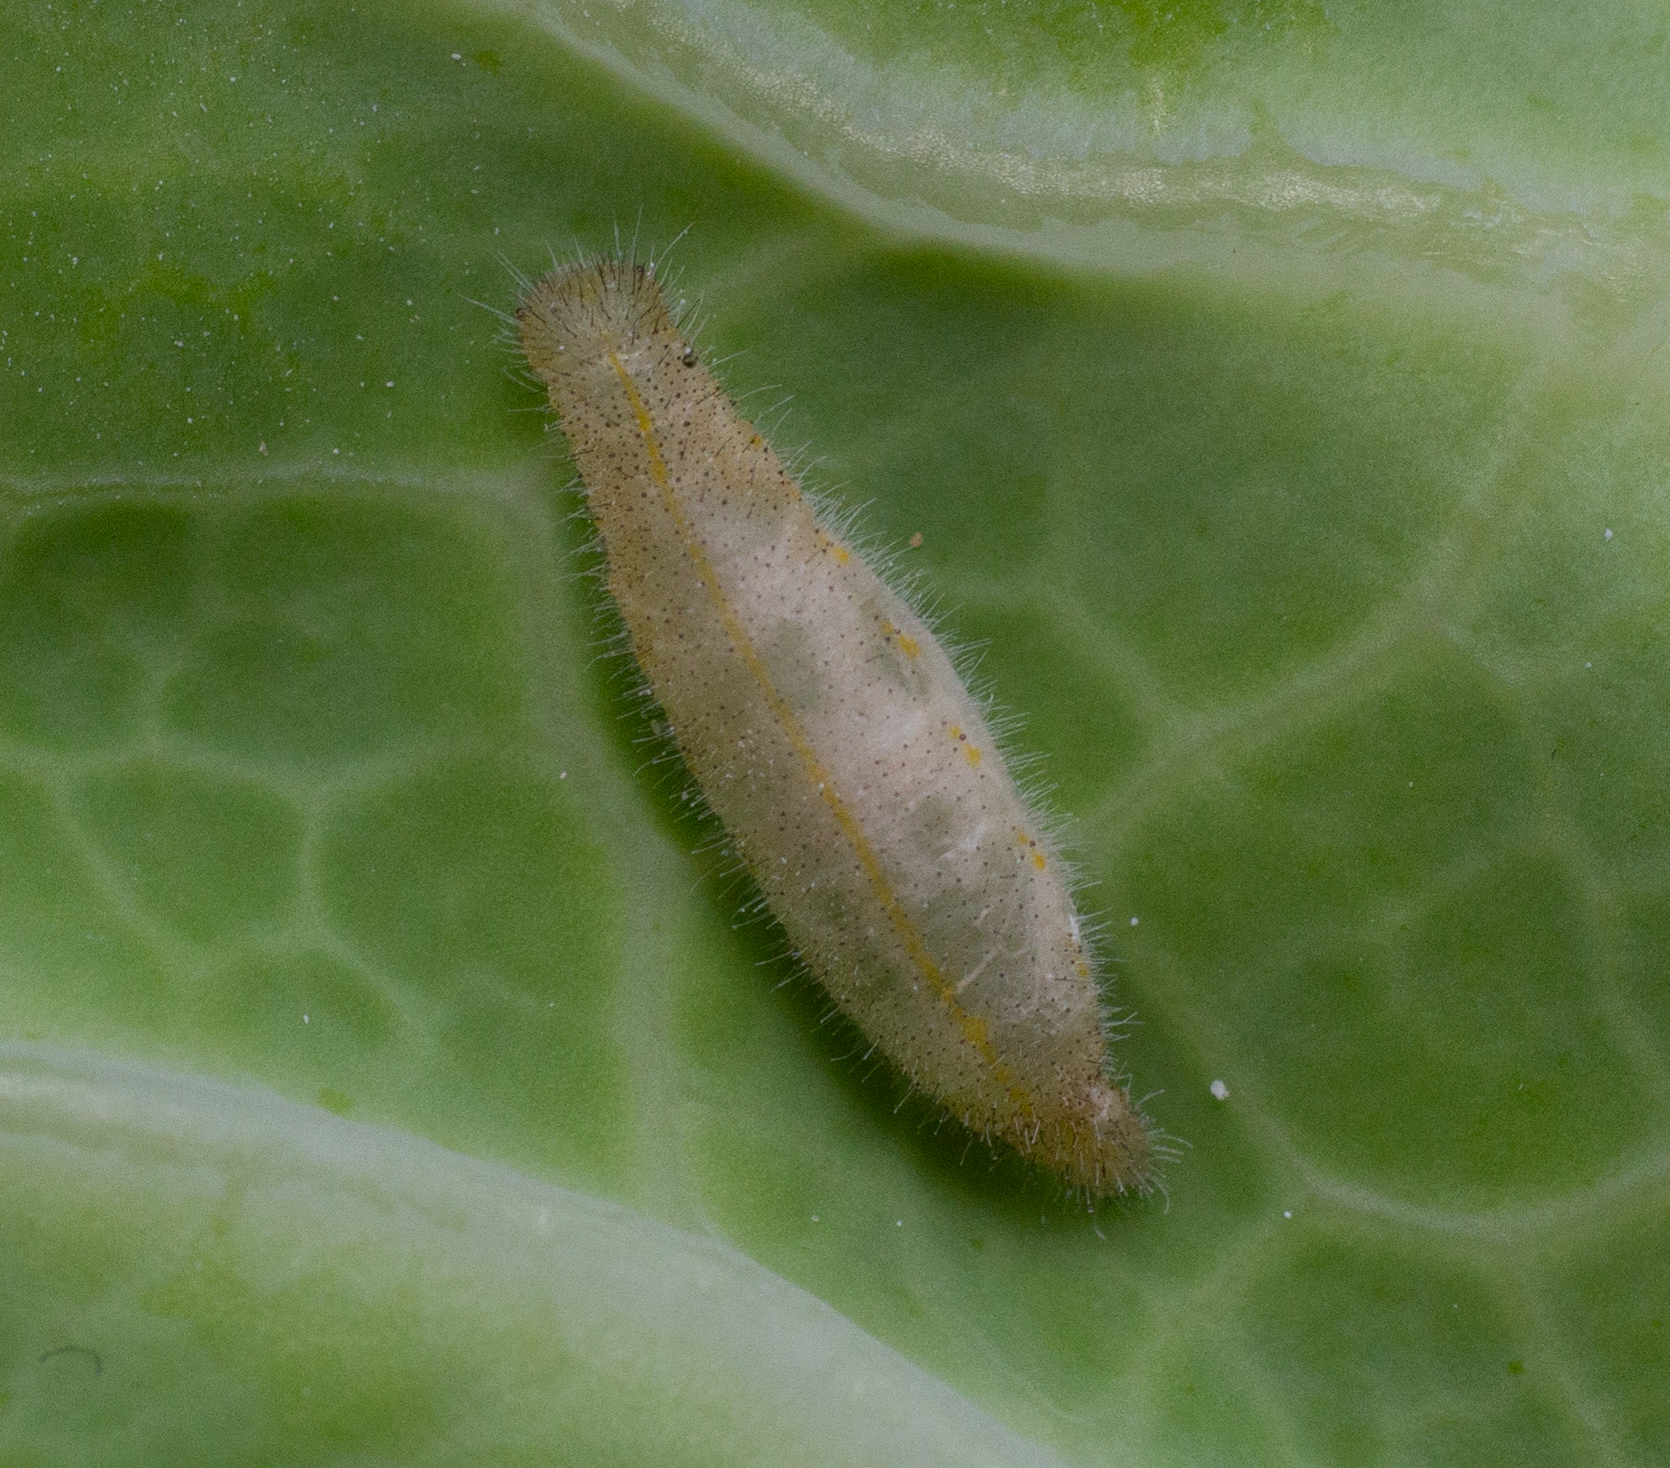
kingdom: Animalia
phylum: Arthropoda
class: Insecta
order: Hymenoptera
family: Ichneumonidae
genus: Hyposoter
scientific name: Hyposoter ebeninus
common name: Ichneumonid wasp
